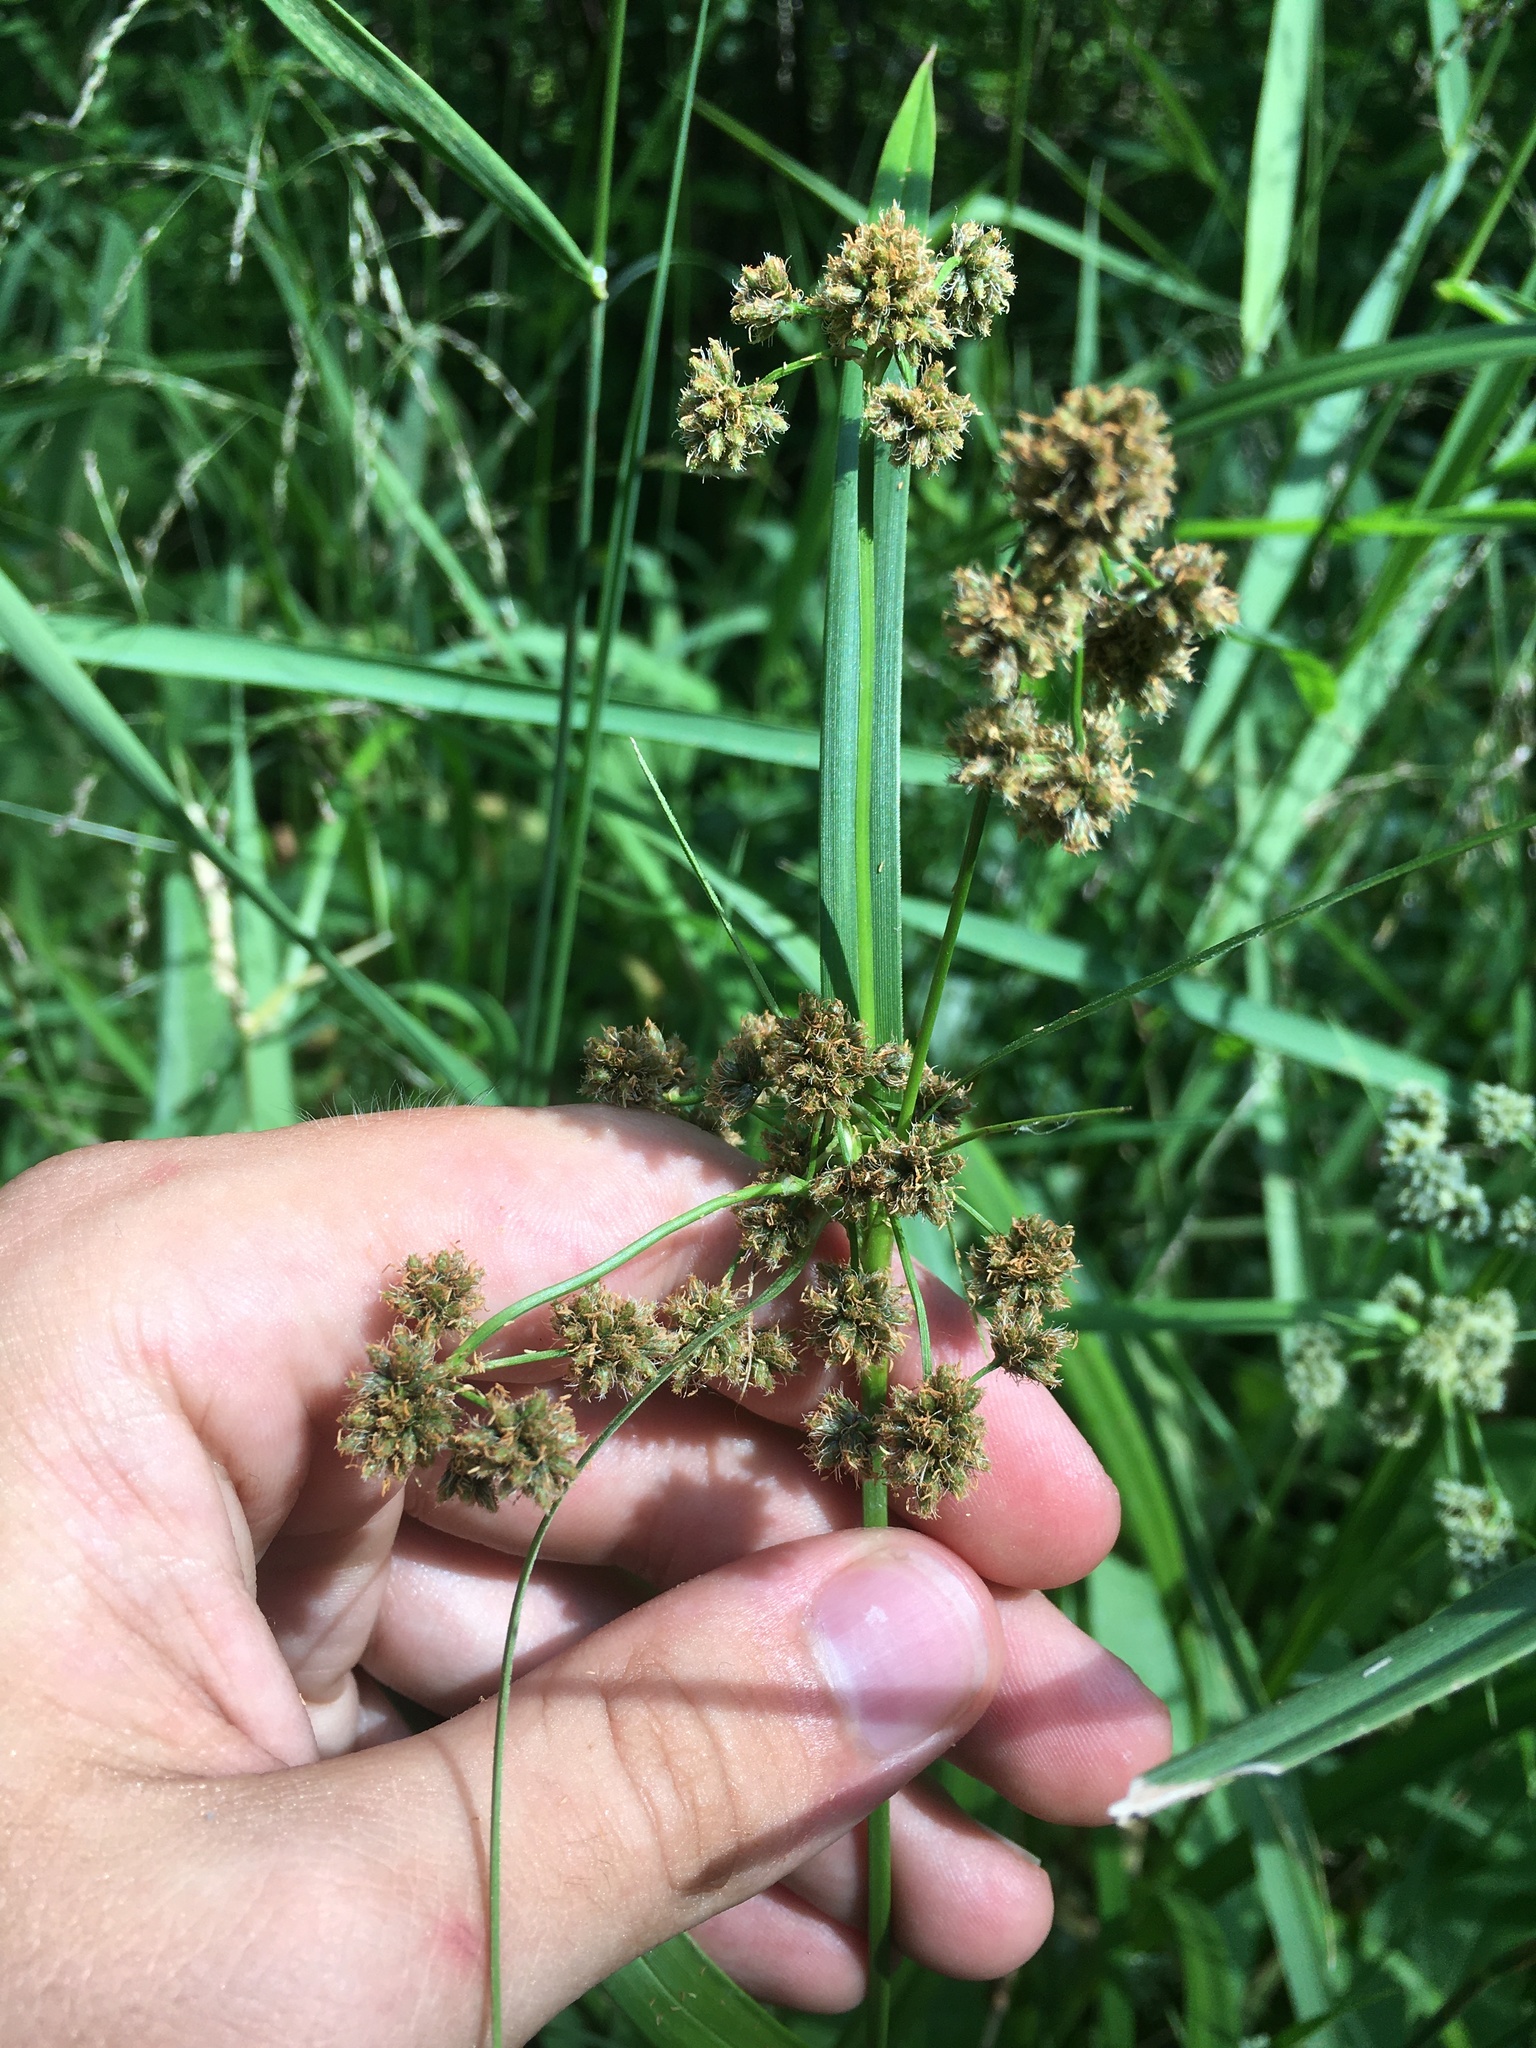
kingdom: Plantae
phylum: Tracheophyta
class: Liliopsida
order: Poales
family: Cyperaceae
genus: Scirpus
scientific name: Scirpus atrovirens
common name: Black bulrush
